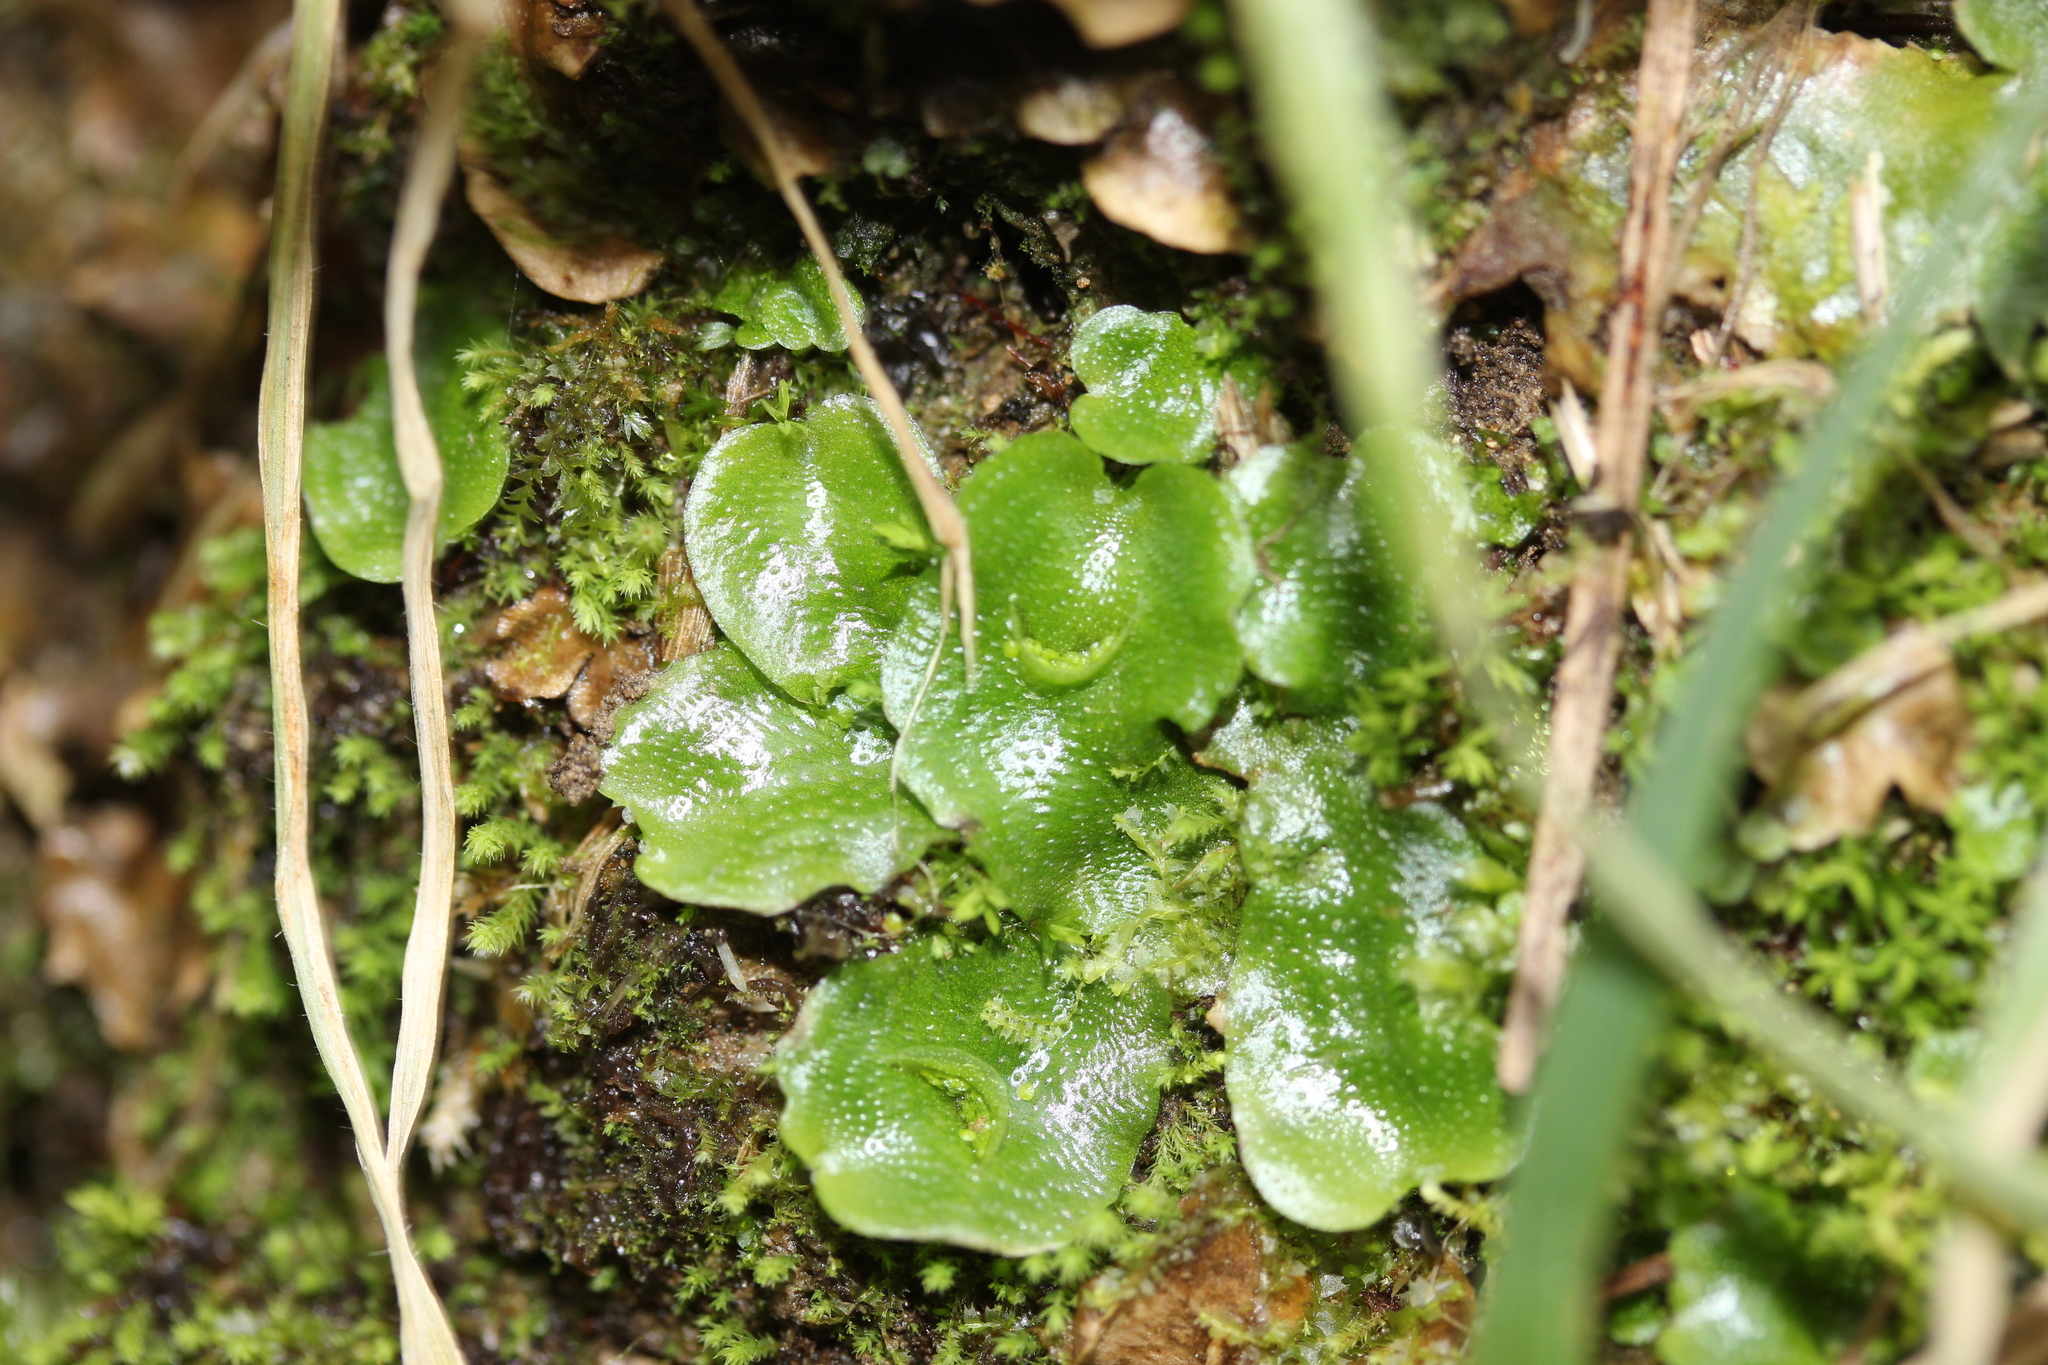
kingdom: Plantae
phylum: Marchantiophyta
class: Marchantiopsida
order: Lunulariales
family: Lunulariaceae
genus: Lunularia
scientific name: Lunularia cruciata
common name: Crescent-cup liverwort
